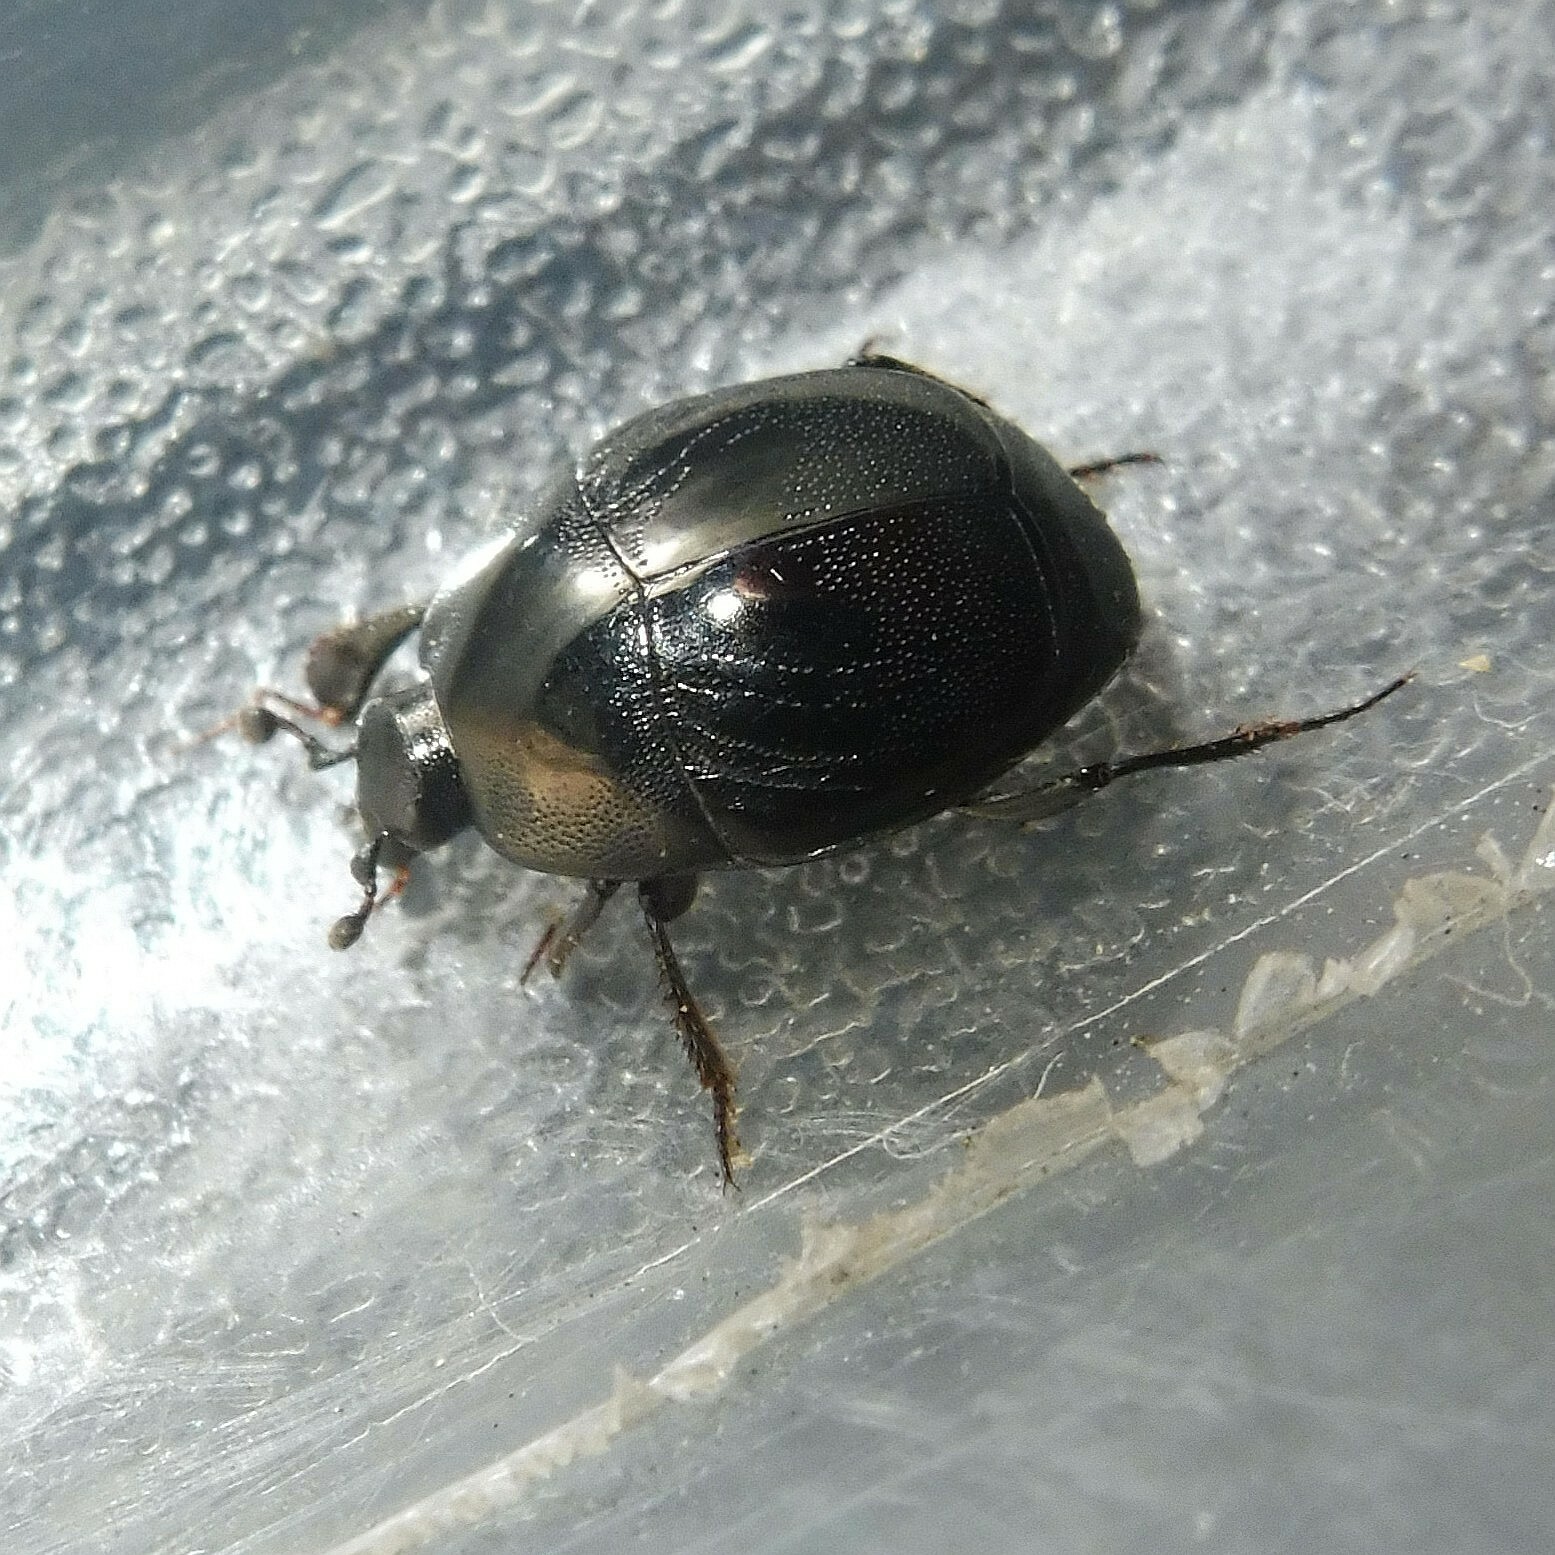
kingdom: Animalia
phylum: Arthropoda
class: Insecta
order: Coleoptera
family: Histeridae
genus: Saprinus
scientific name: Saprinus semistriatus
